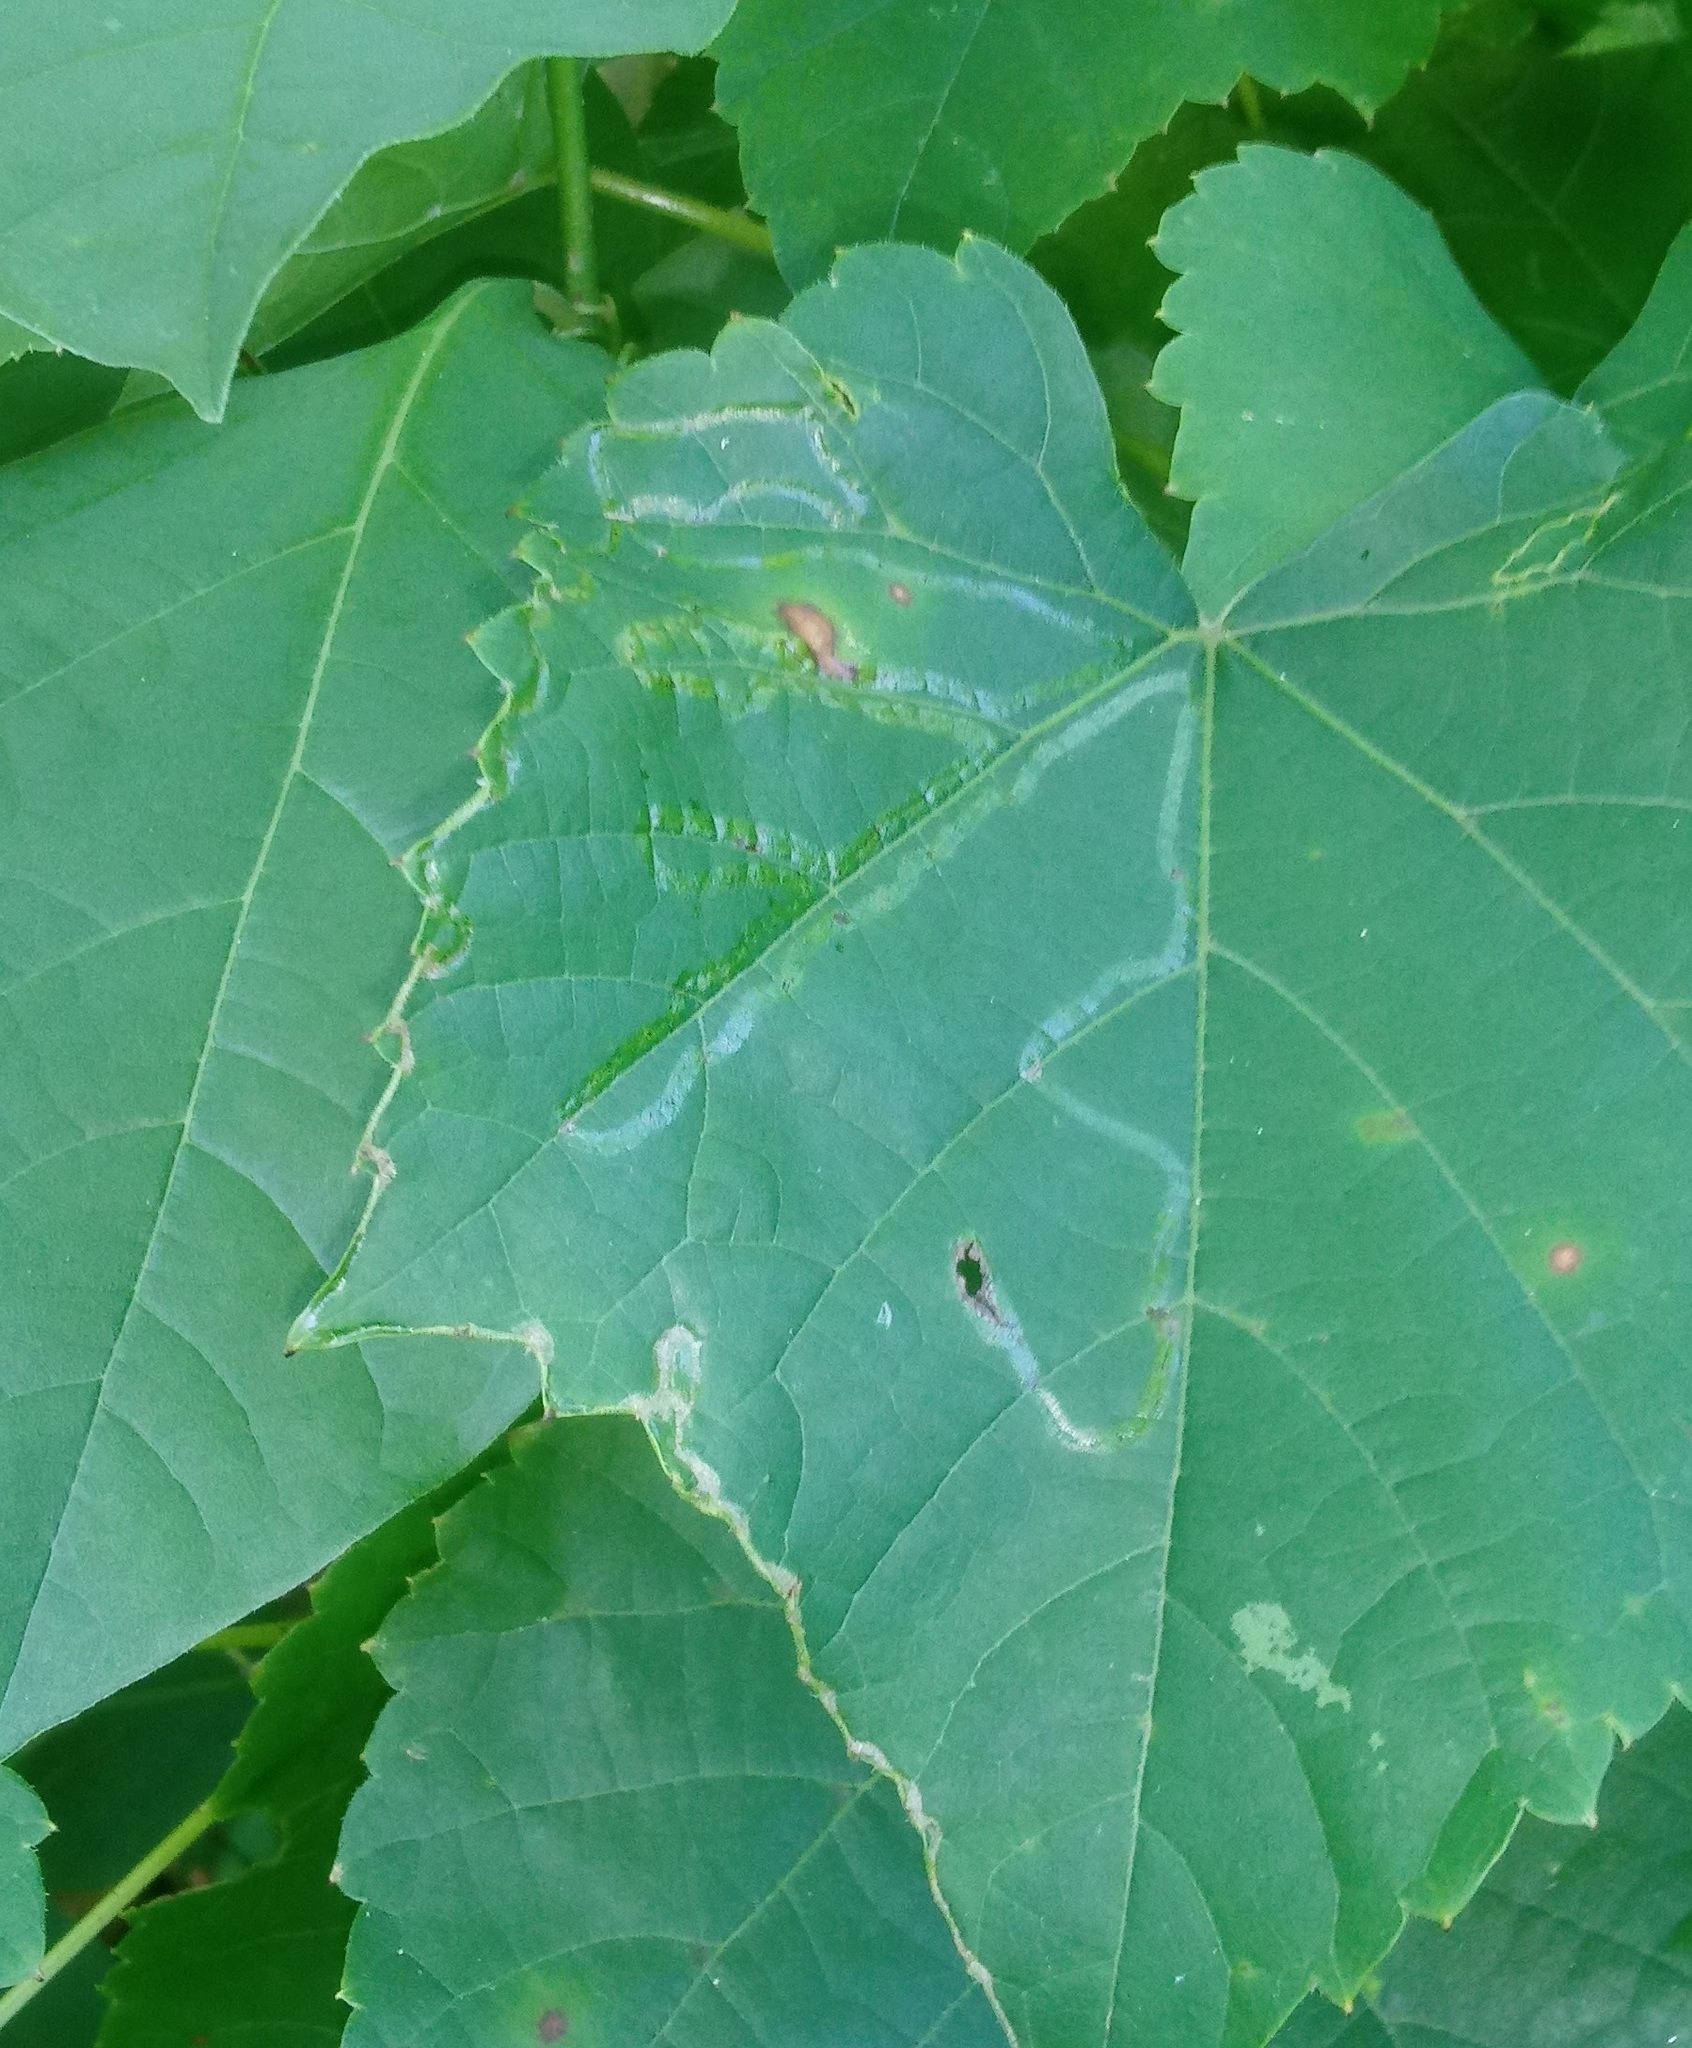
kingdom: Animalia
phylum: Arthropoda
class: Insecta
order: Lepidoptera
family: Gracillariidae
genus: Phyllocnistis
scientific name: Phyllocnistis vitegenella
